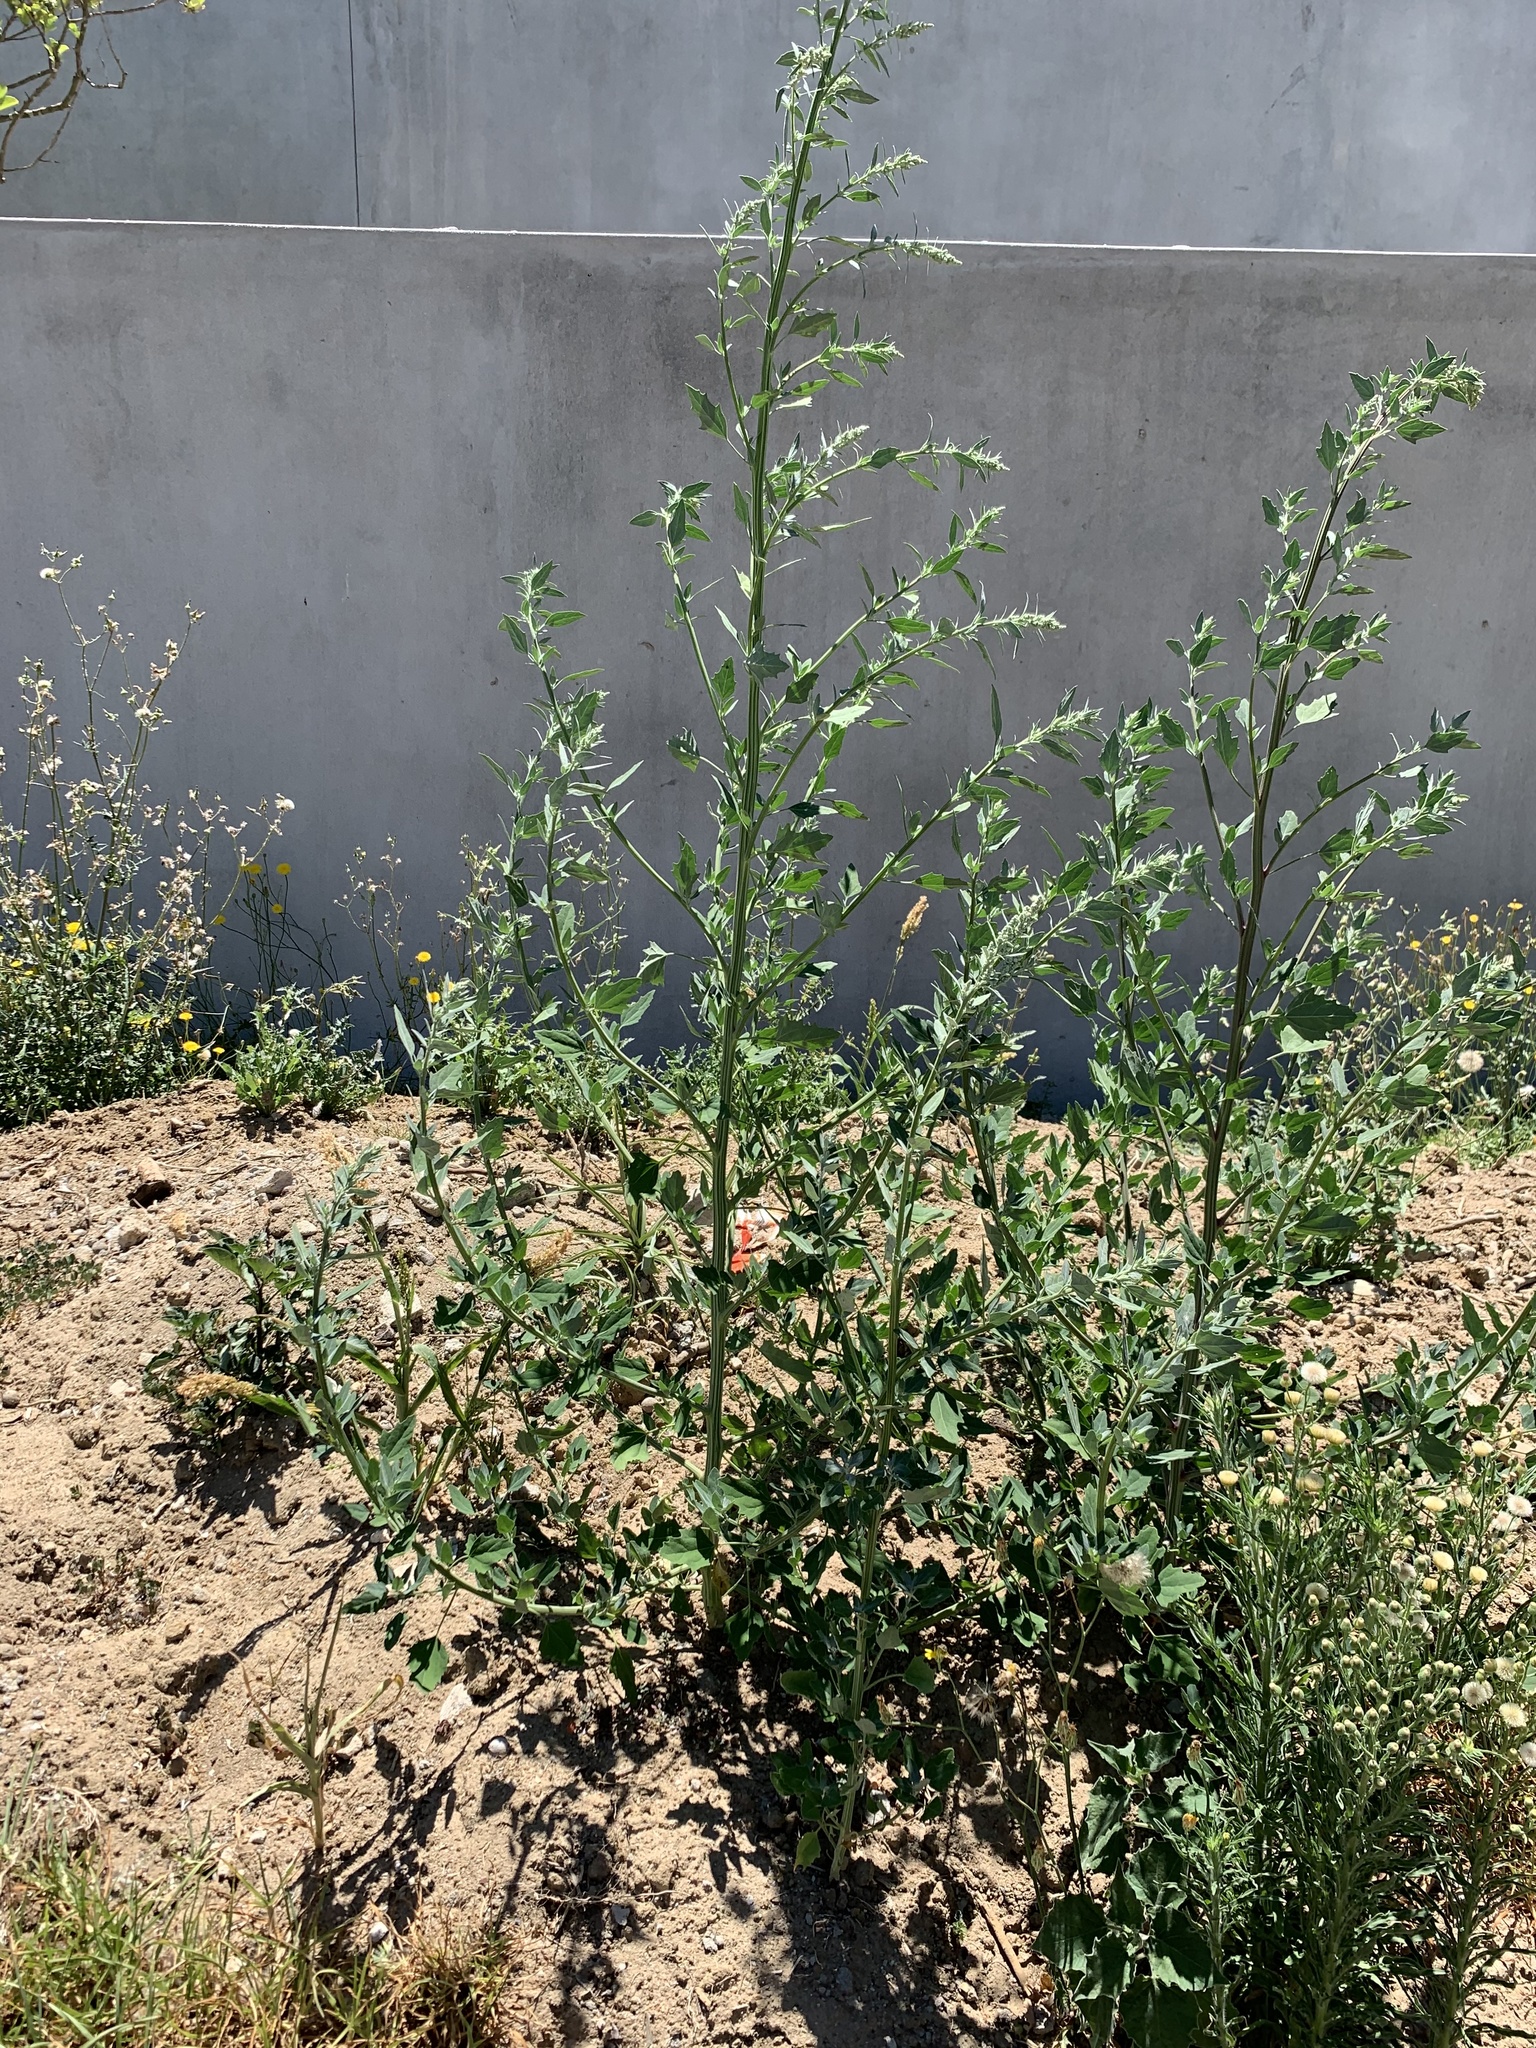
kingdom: Plantae
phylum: Tracheophyta
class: Magnoliopsida
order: Caryophyllales
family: Amaranthaceae
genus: Chenopodium
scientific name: Chenopodium album
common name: Fat-hen
